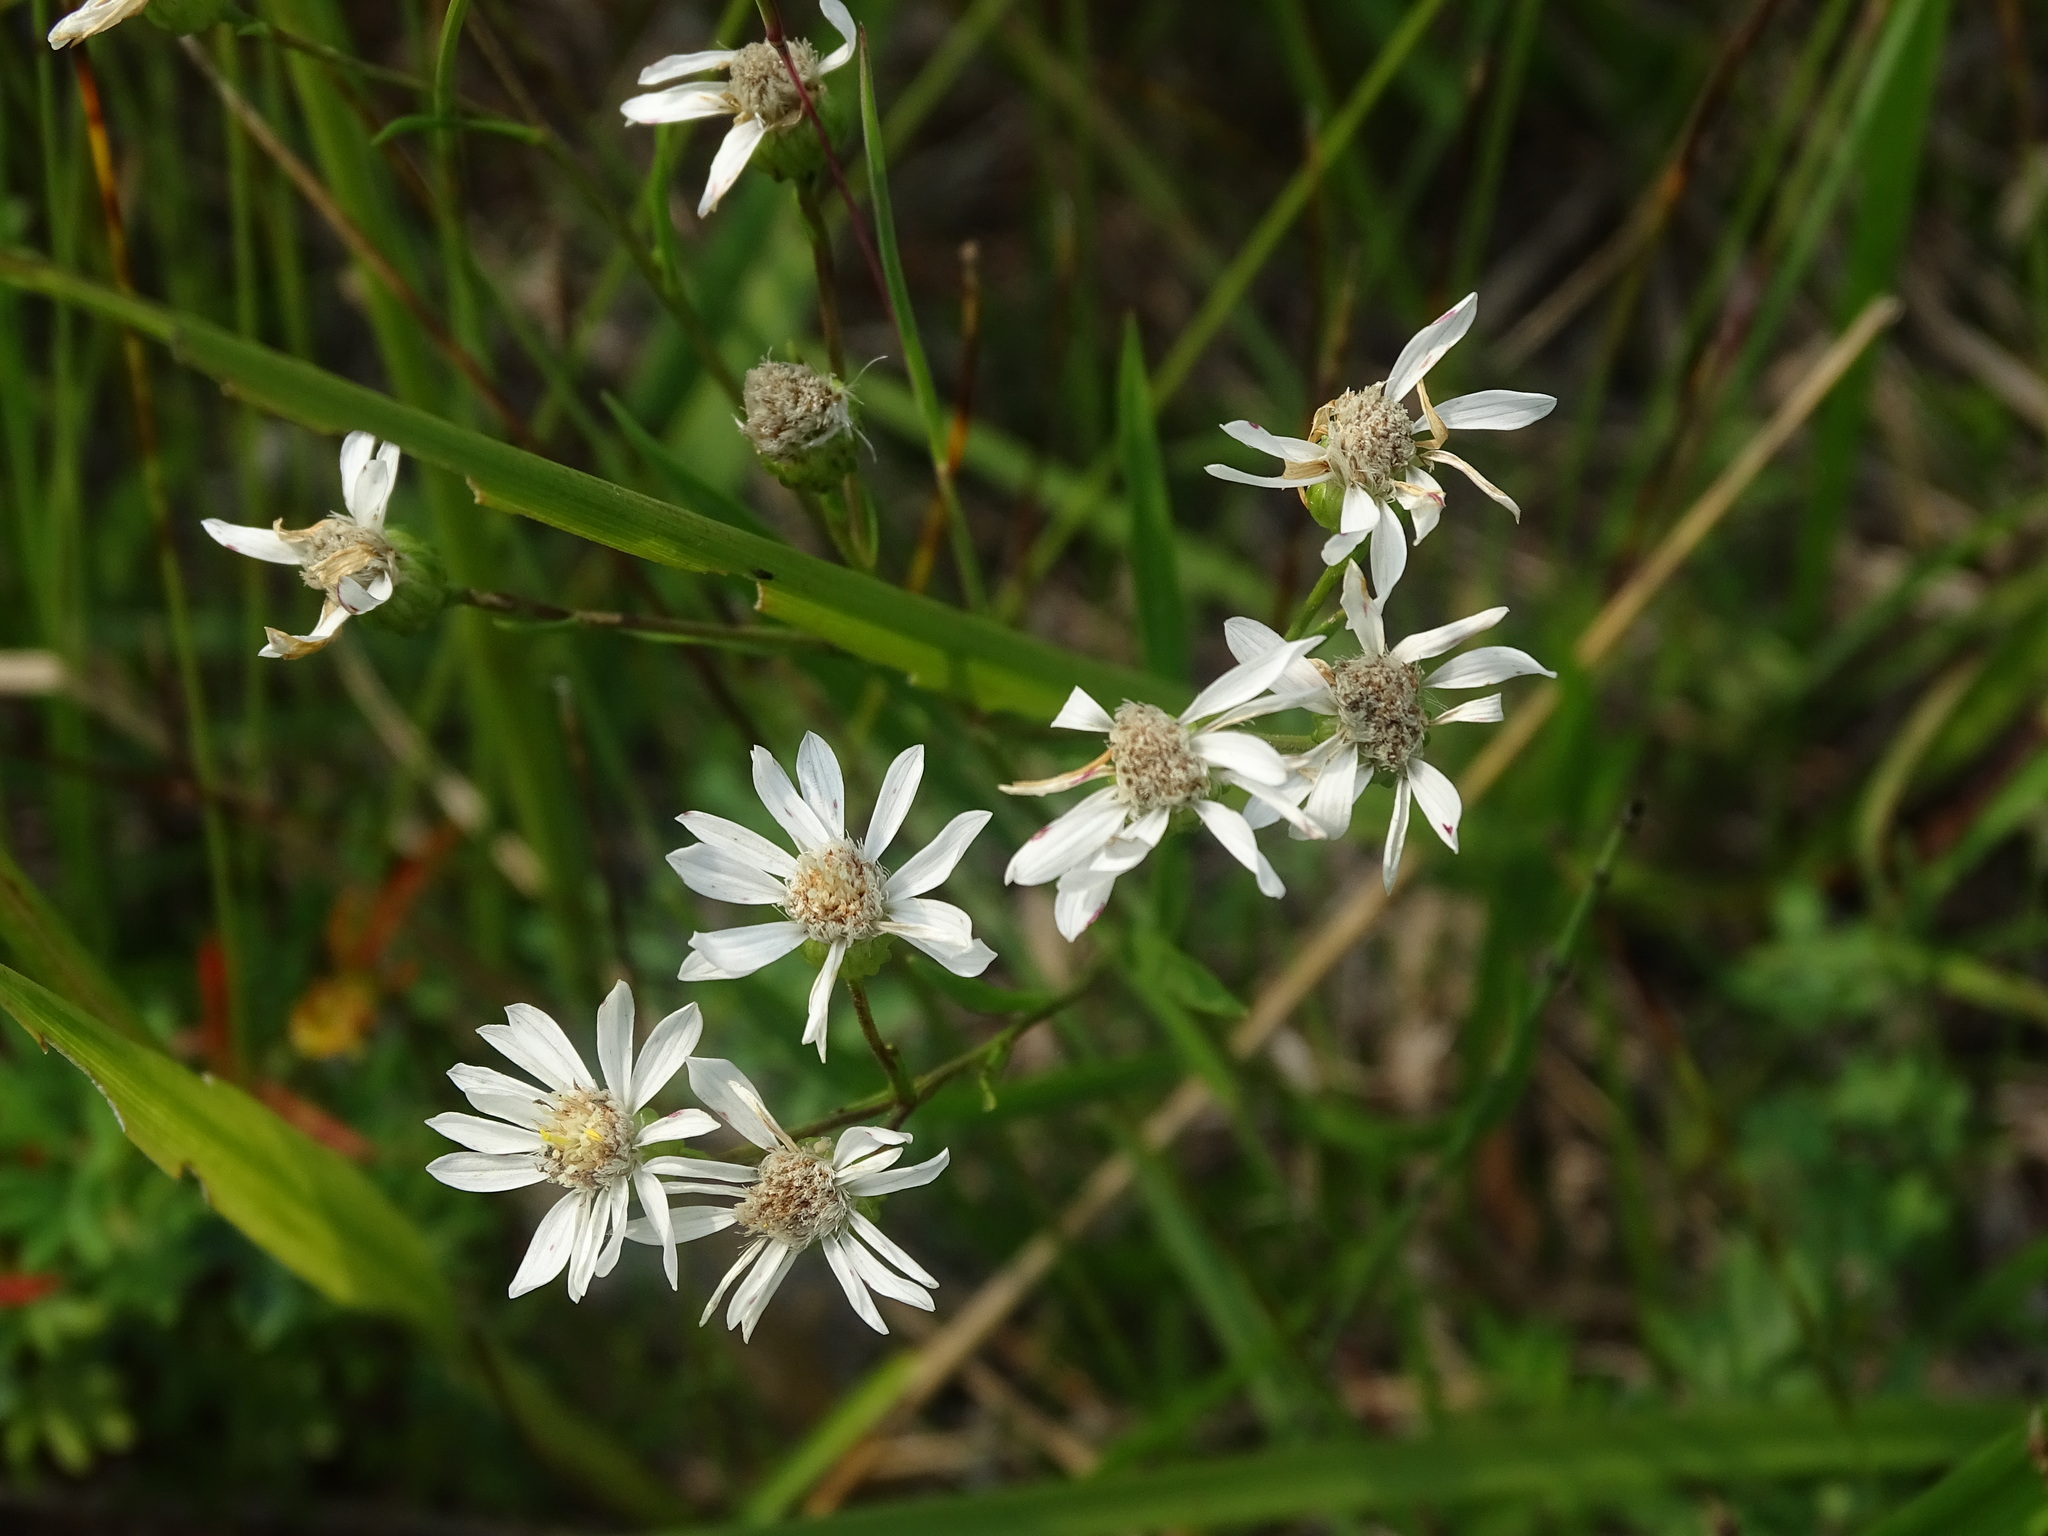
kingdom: Plantae
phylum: Tracheophyta
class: Magnoliopsida
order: Asterales
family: Asteraceae
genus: Solidago
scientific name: Solidago ptarmicoides
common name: White flat-top goldenrod
